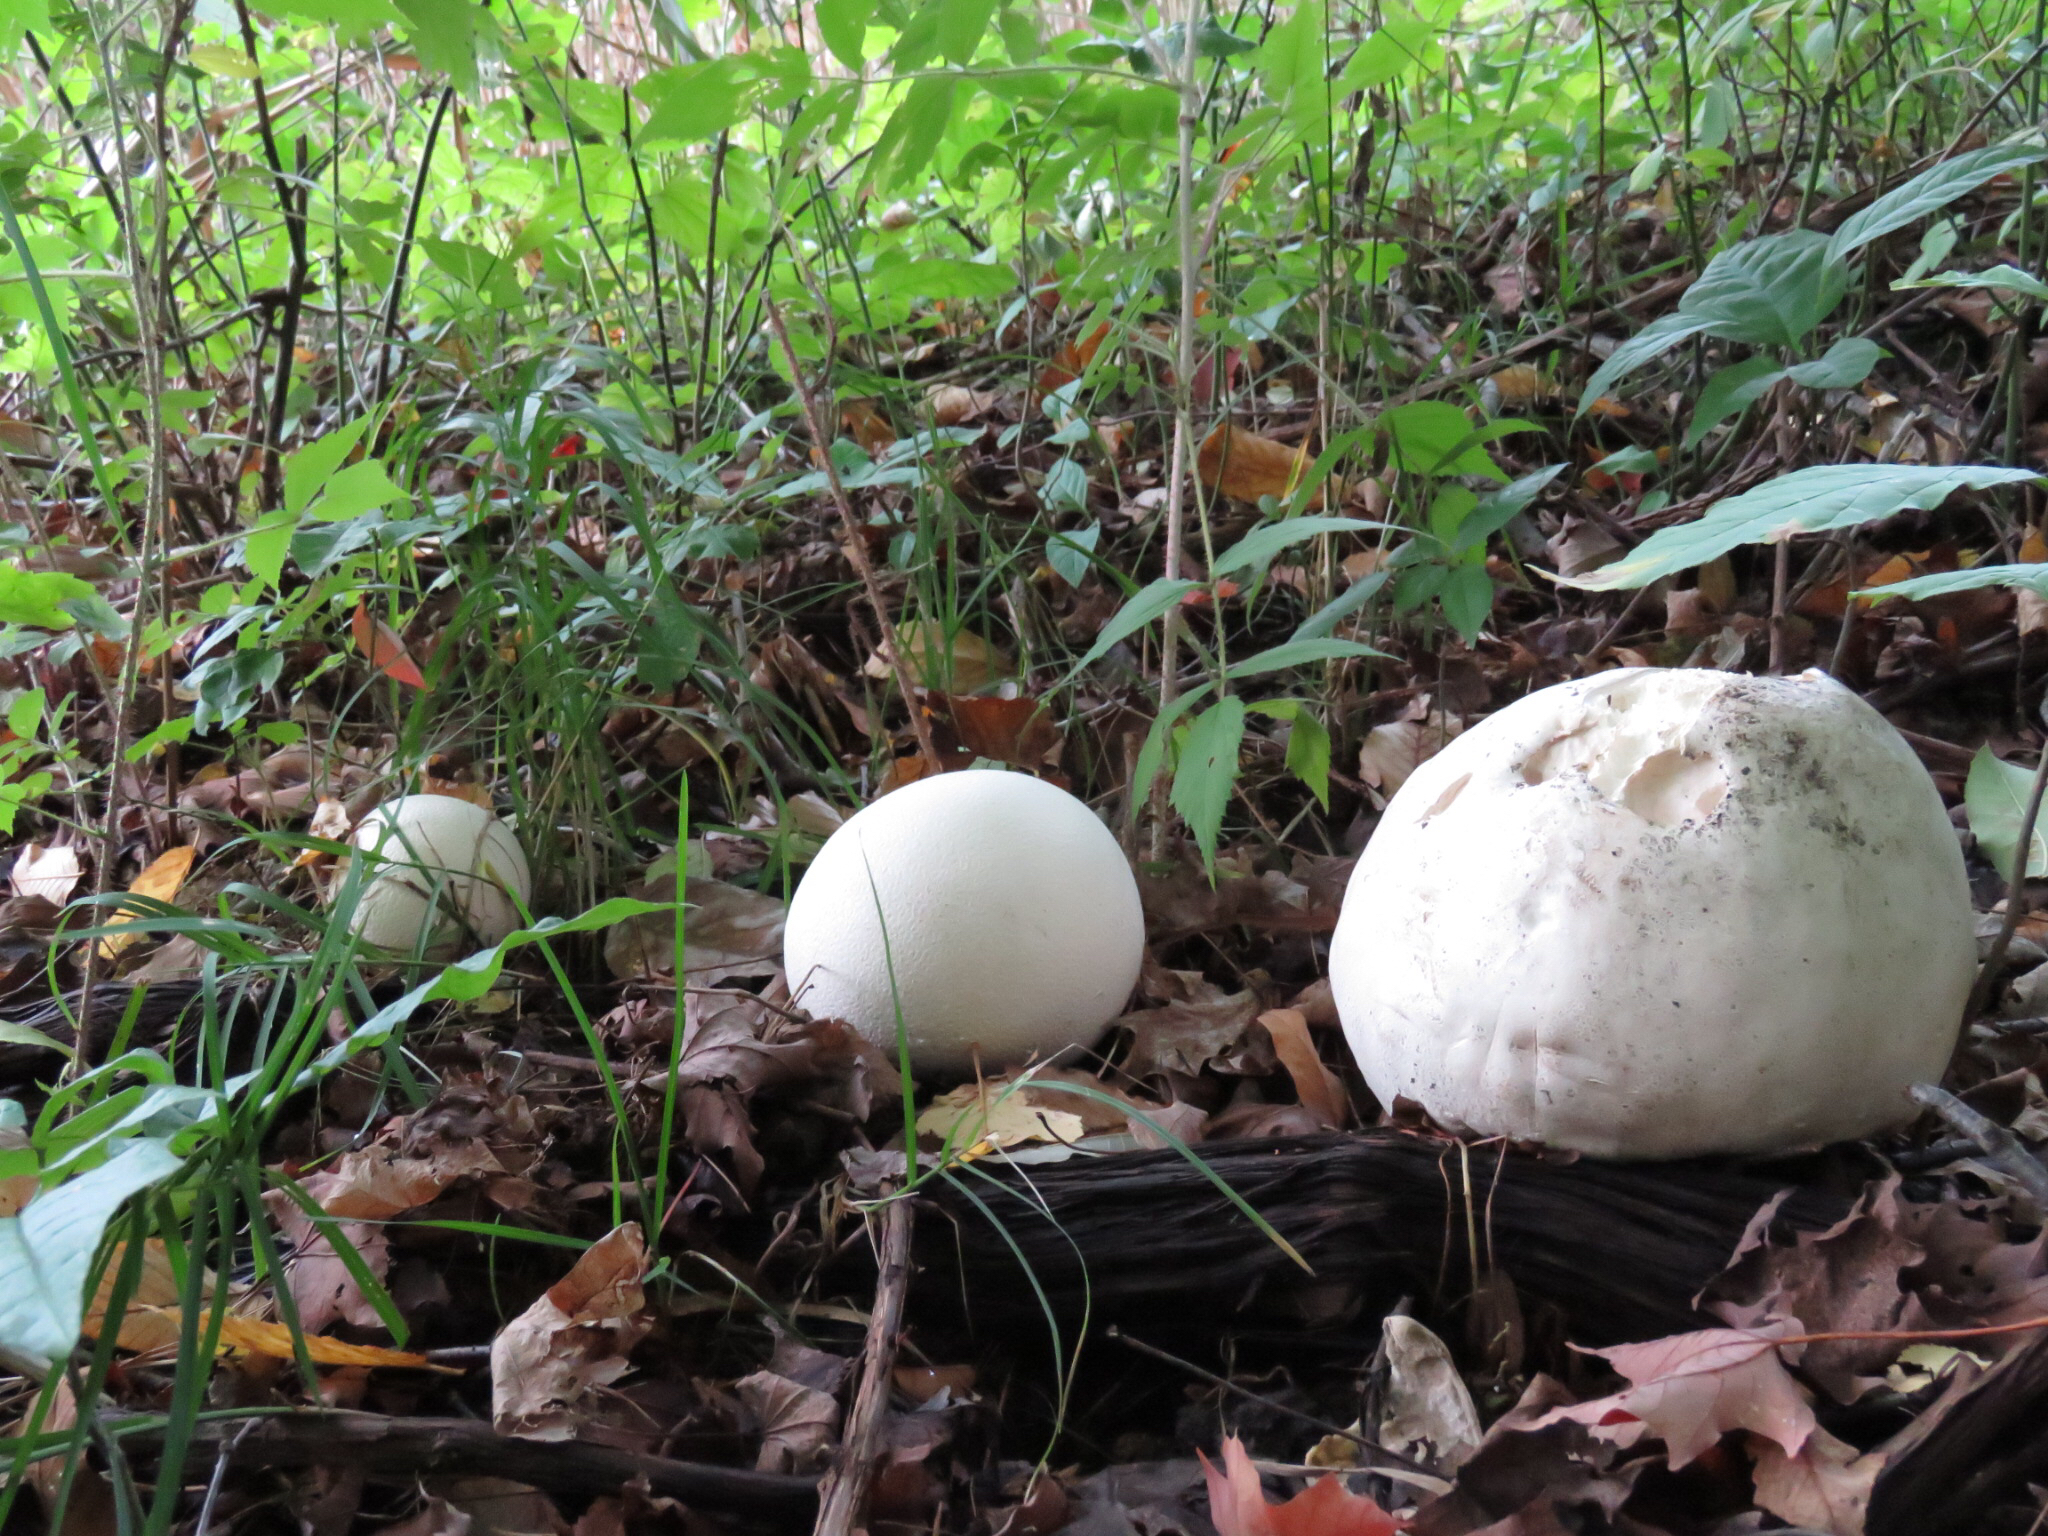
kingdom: Fungi
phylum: Basidiomycota
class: Agaricomycetes
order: Agaricales
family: Lycoperdaceae
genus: Calvatia
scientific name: Calvatia gigantea
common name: Giant puffball
